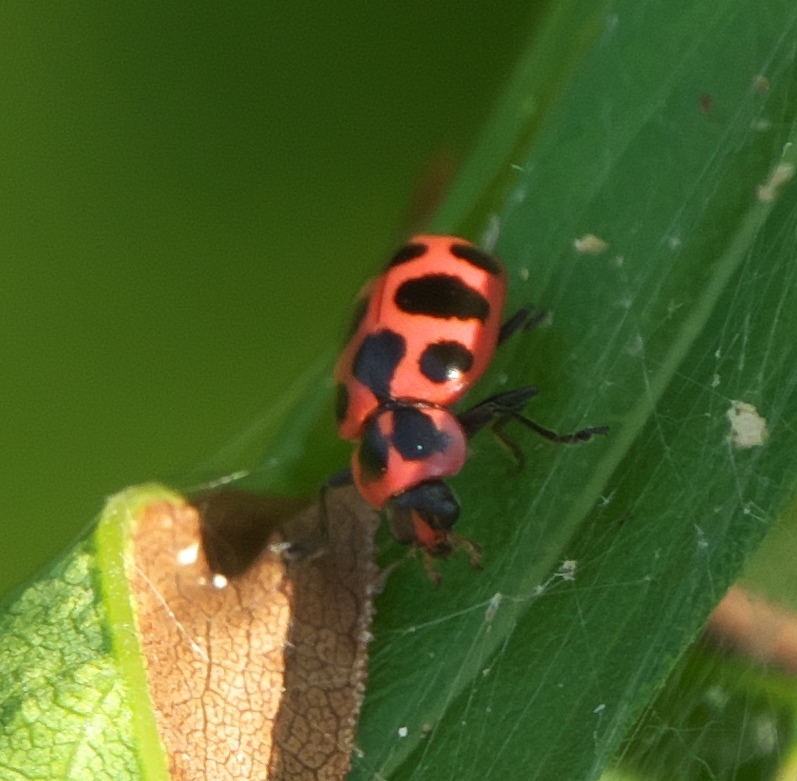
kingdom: Animalia
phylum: Arthropoda
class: Insecta
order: Coleoptera
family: Coccinellidae
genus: Coleomegilla
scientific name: Coleomegilla maculata
